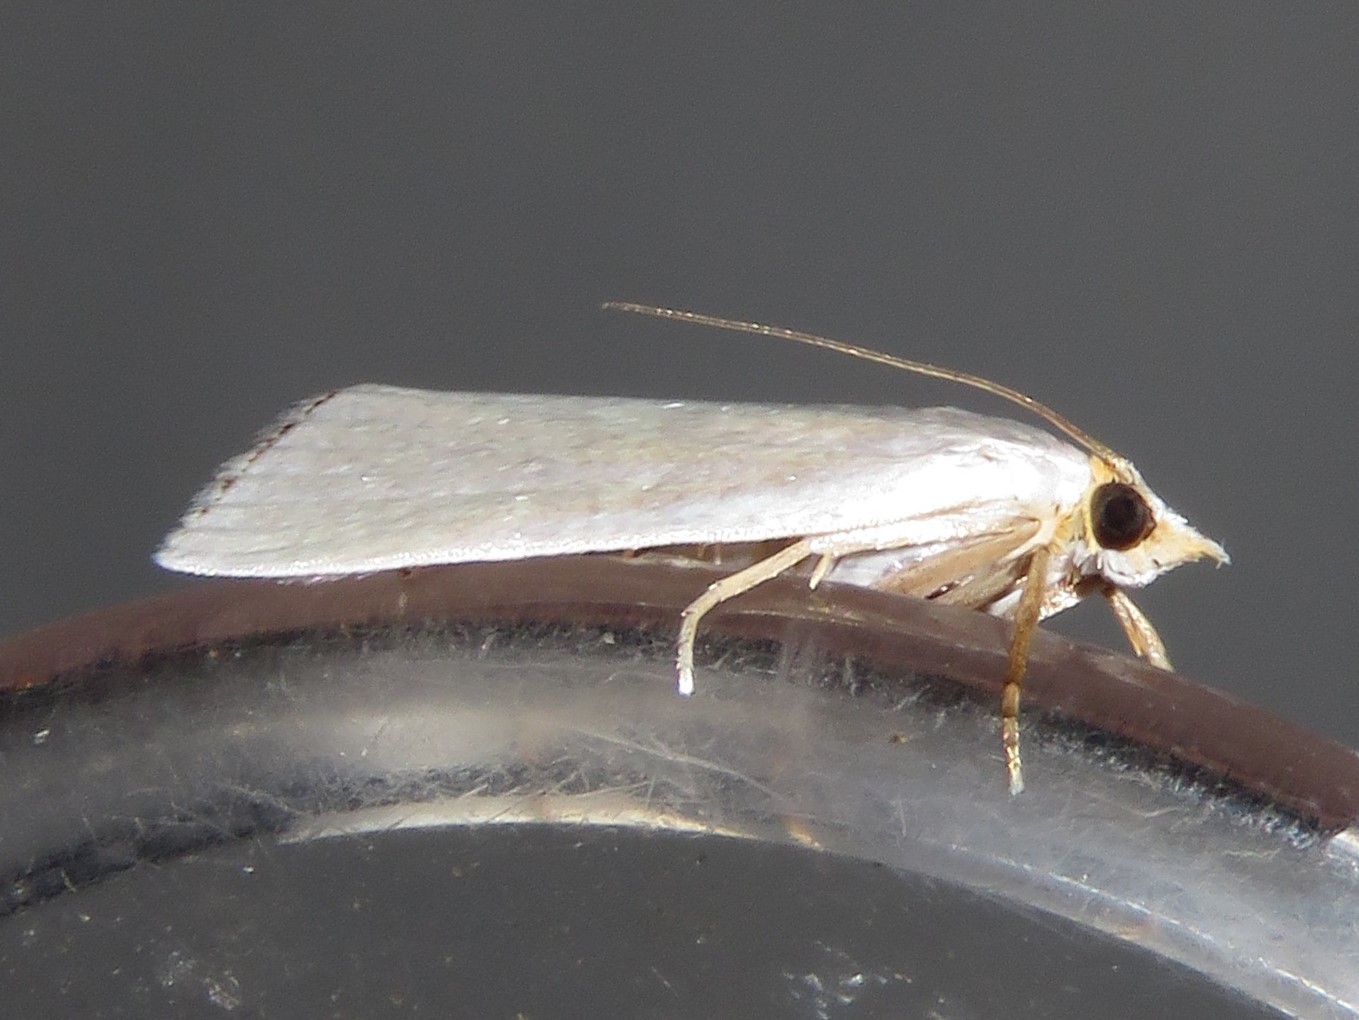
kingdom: Animalia
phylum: Arthropoda
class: Insecta
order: Lepidoptera
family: Crambidae
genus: Argyria
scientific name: Argyria nivalis
